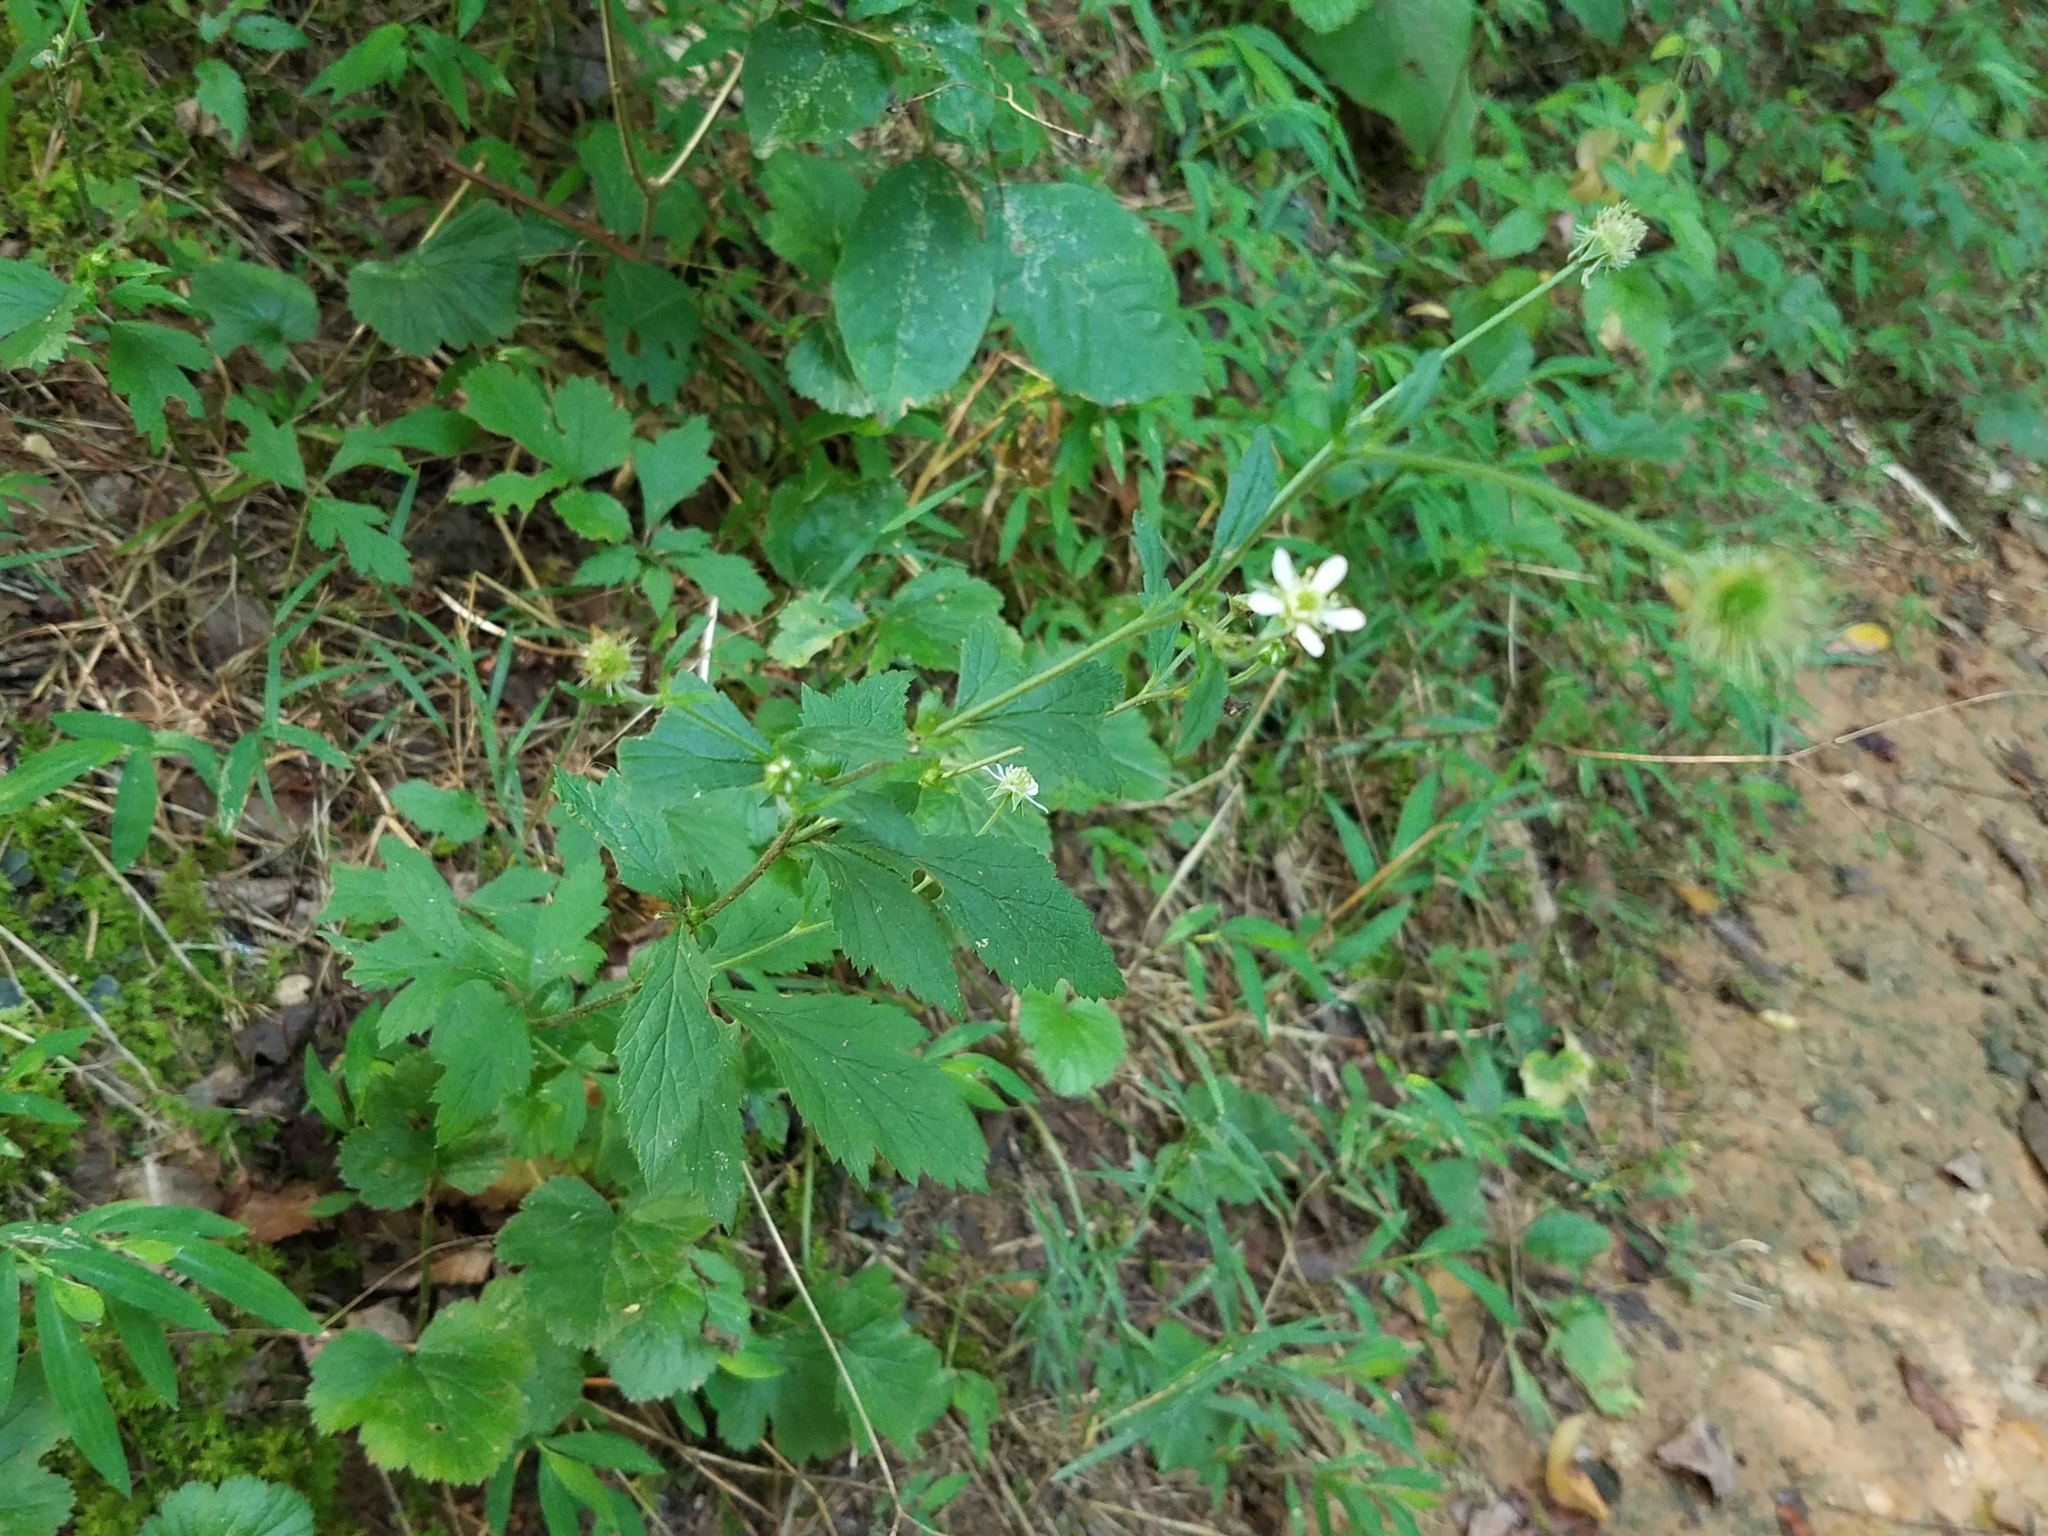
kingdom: Plantae
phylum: Tracheophyta
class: Magnoliopsida
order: Rosales
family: Rosaceae
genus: Geum
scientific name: Geum canadense
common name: White avens
